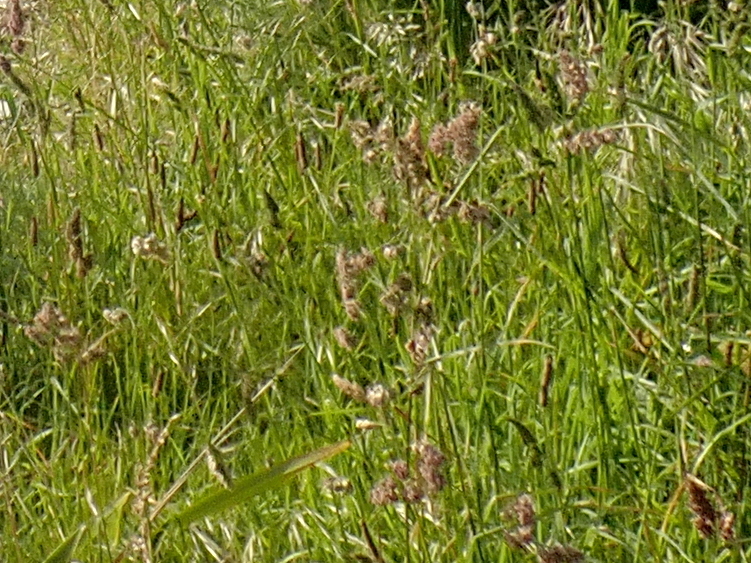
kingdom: Plantae
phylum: Tracheophyta
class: Liliopsida
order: Poales
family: Poaceae
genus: Dactylis
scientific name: Dactylis glomerata
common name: Orchardgrass
